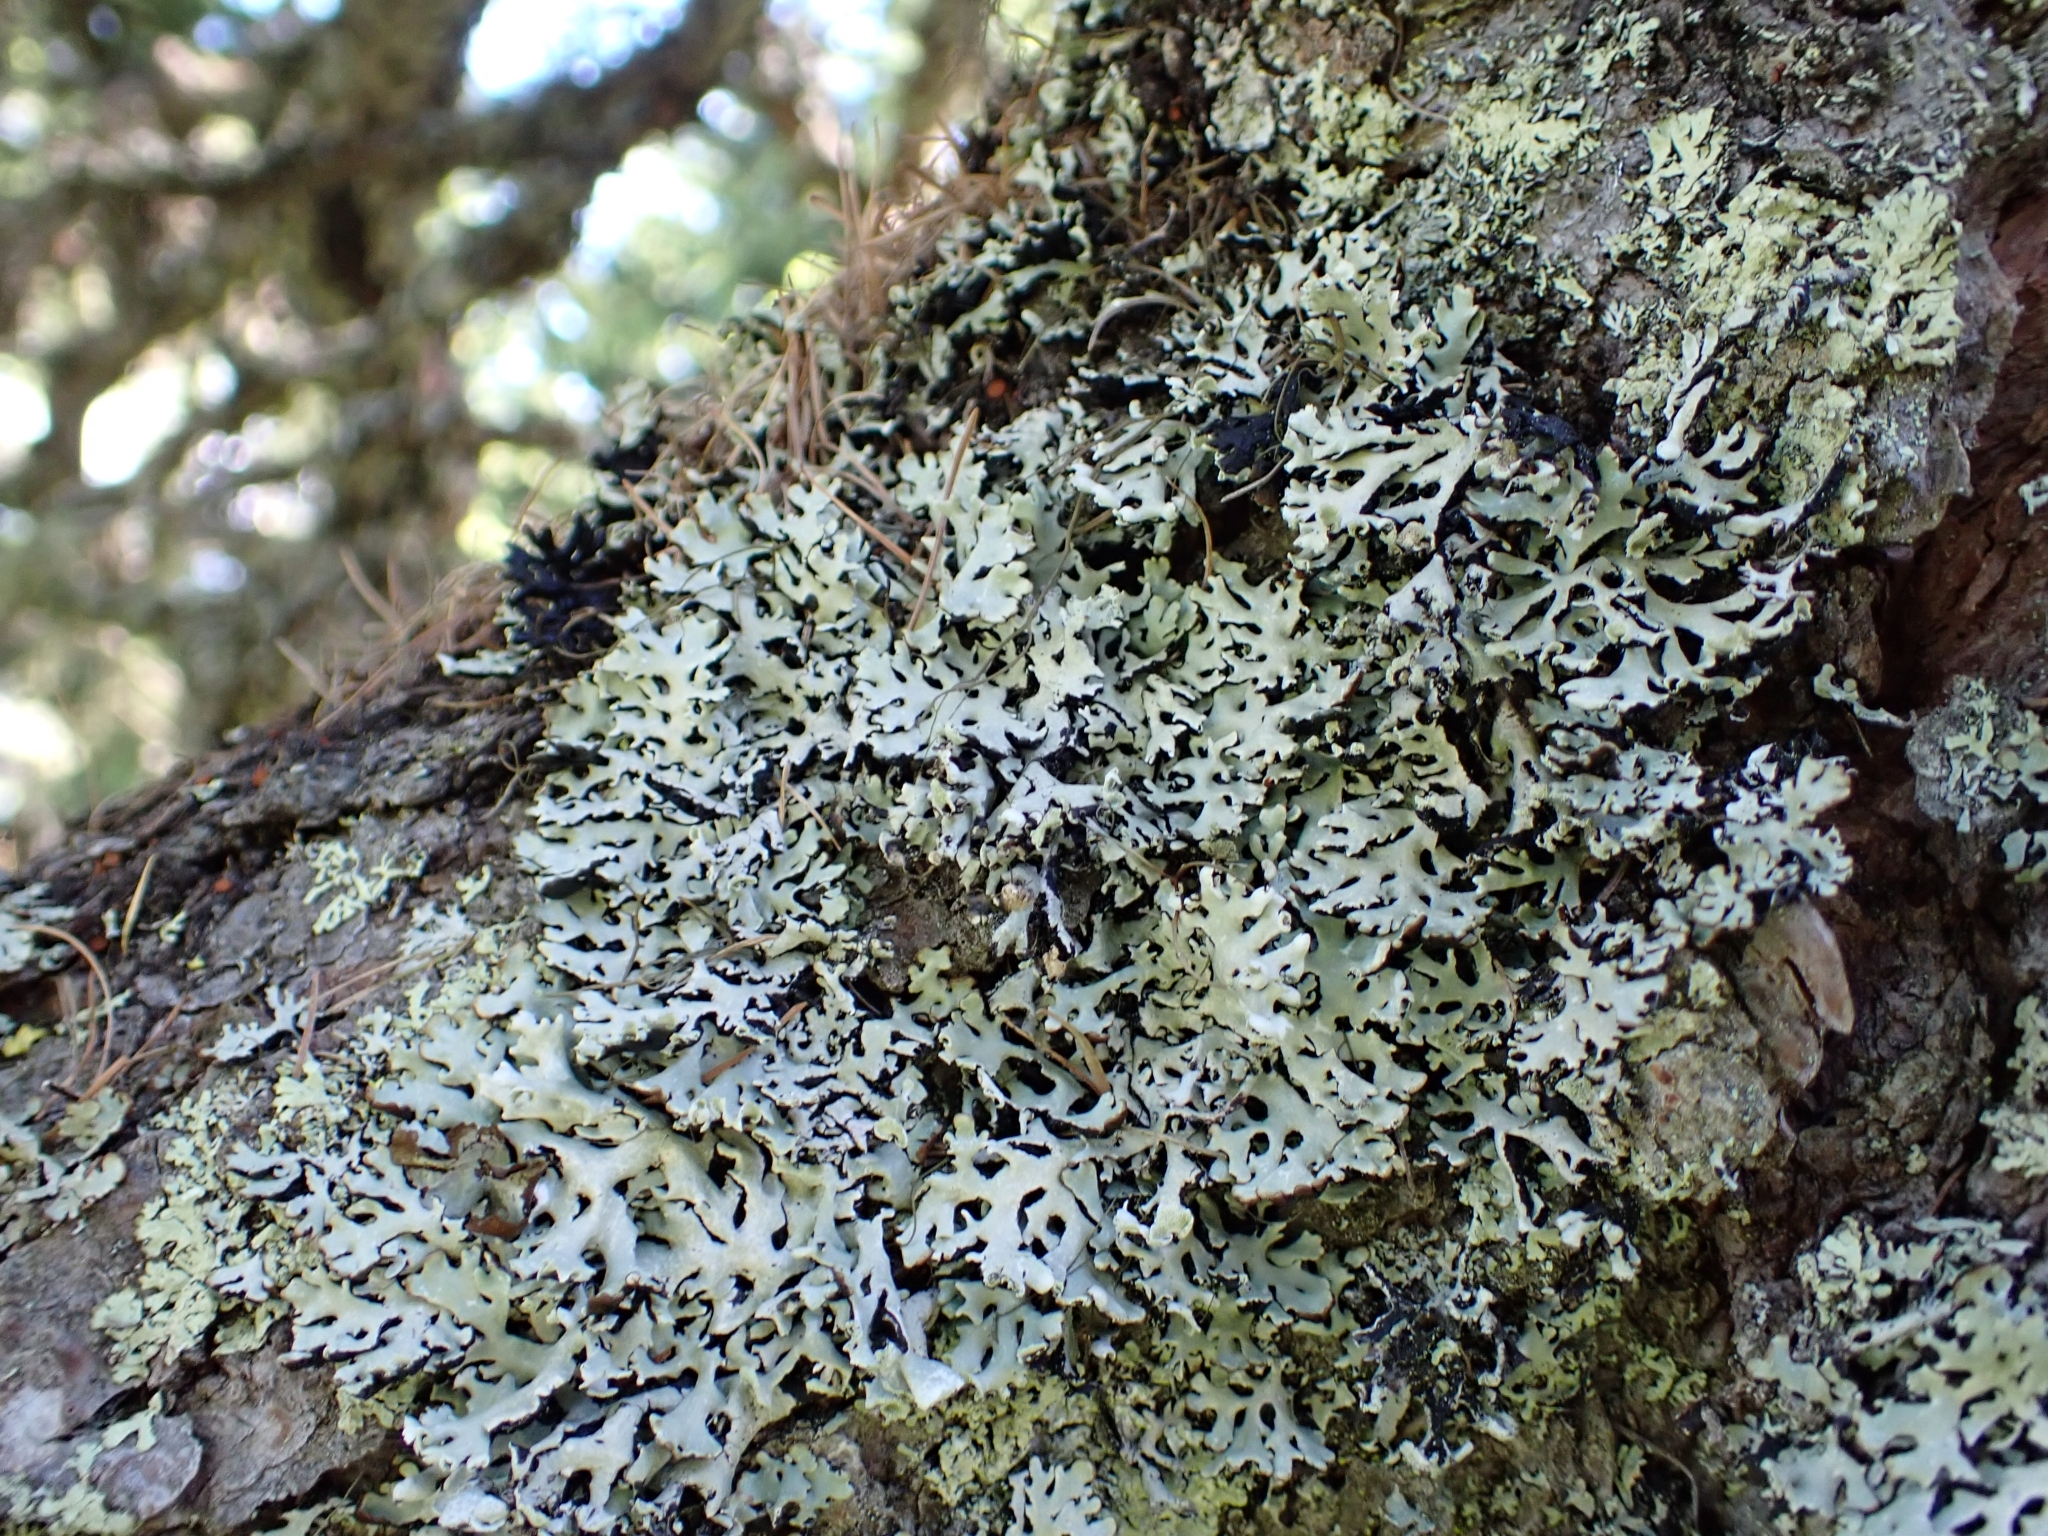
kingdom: Fungi
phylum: Ascomycota
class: Lecanoromycetes
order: Lecanorales
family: Parmeliaceae
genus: Hypogymnia
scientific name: Hypogymnia physodes
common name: Dark crottle
